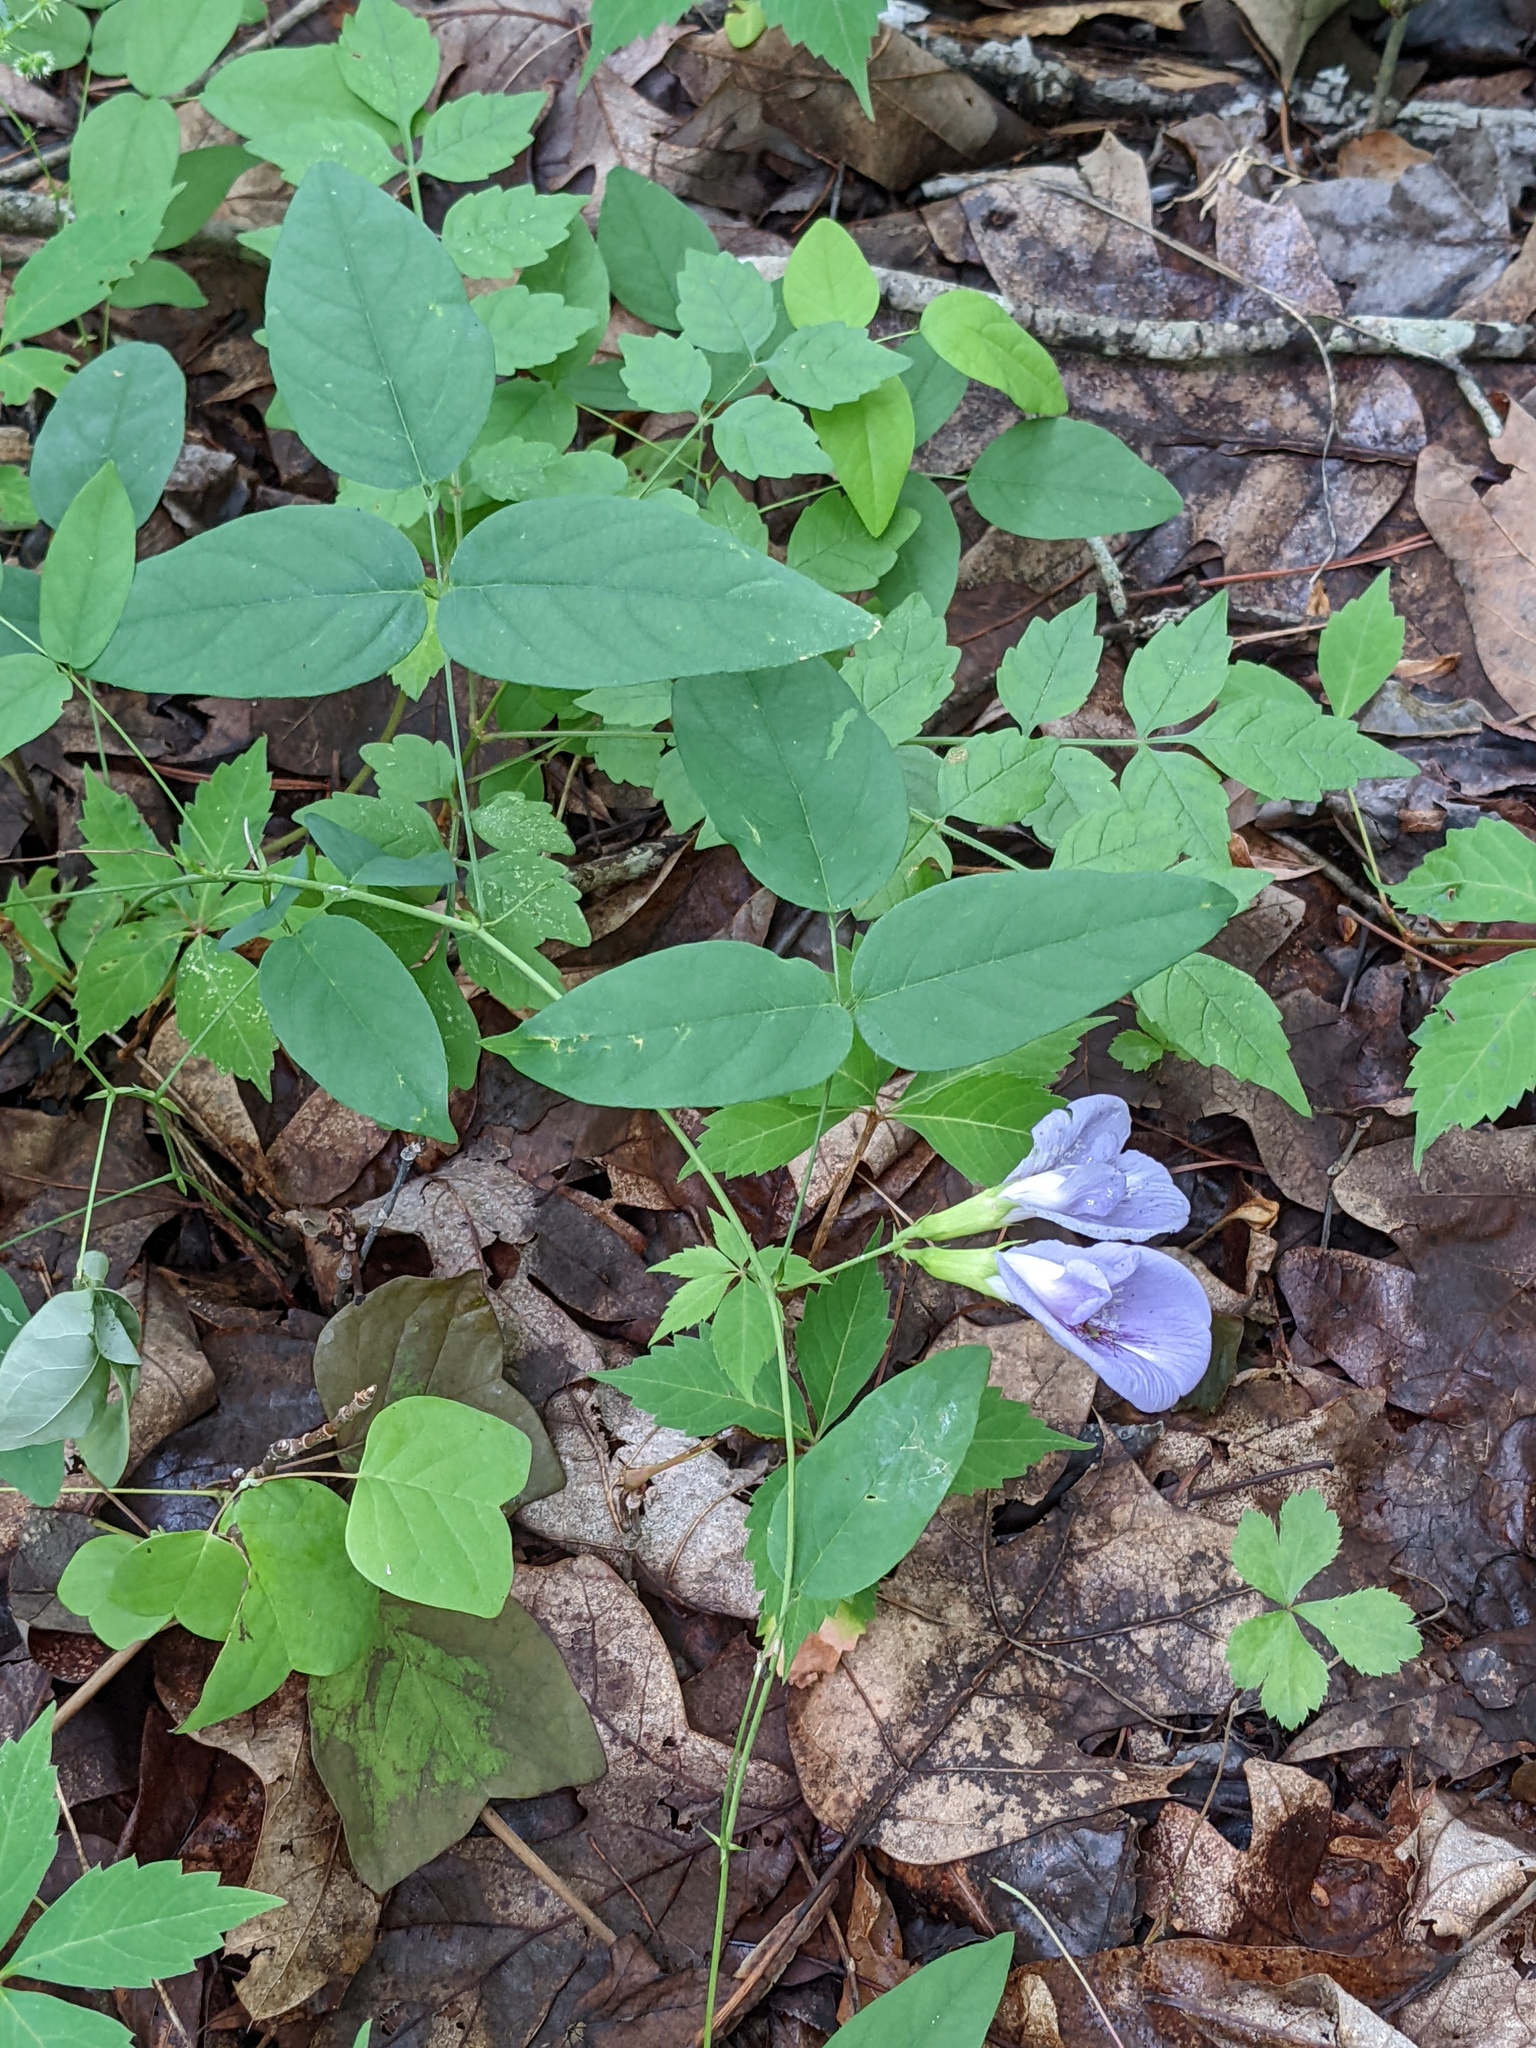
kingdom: Plantae
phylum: Tracheophyta
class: Magnoliopsida
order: Fabales
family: Fabaceae
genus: Clitoria
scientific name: Clitoria mariana
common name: Butterfly-pea
